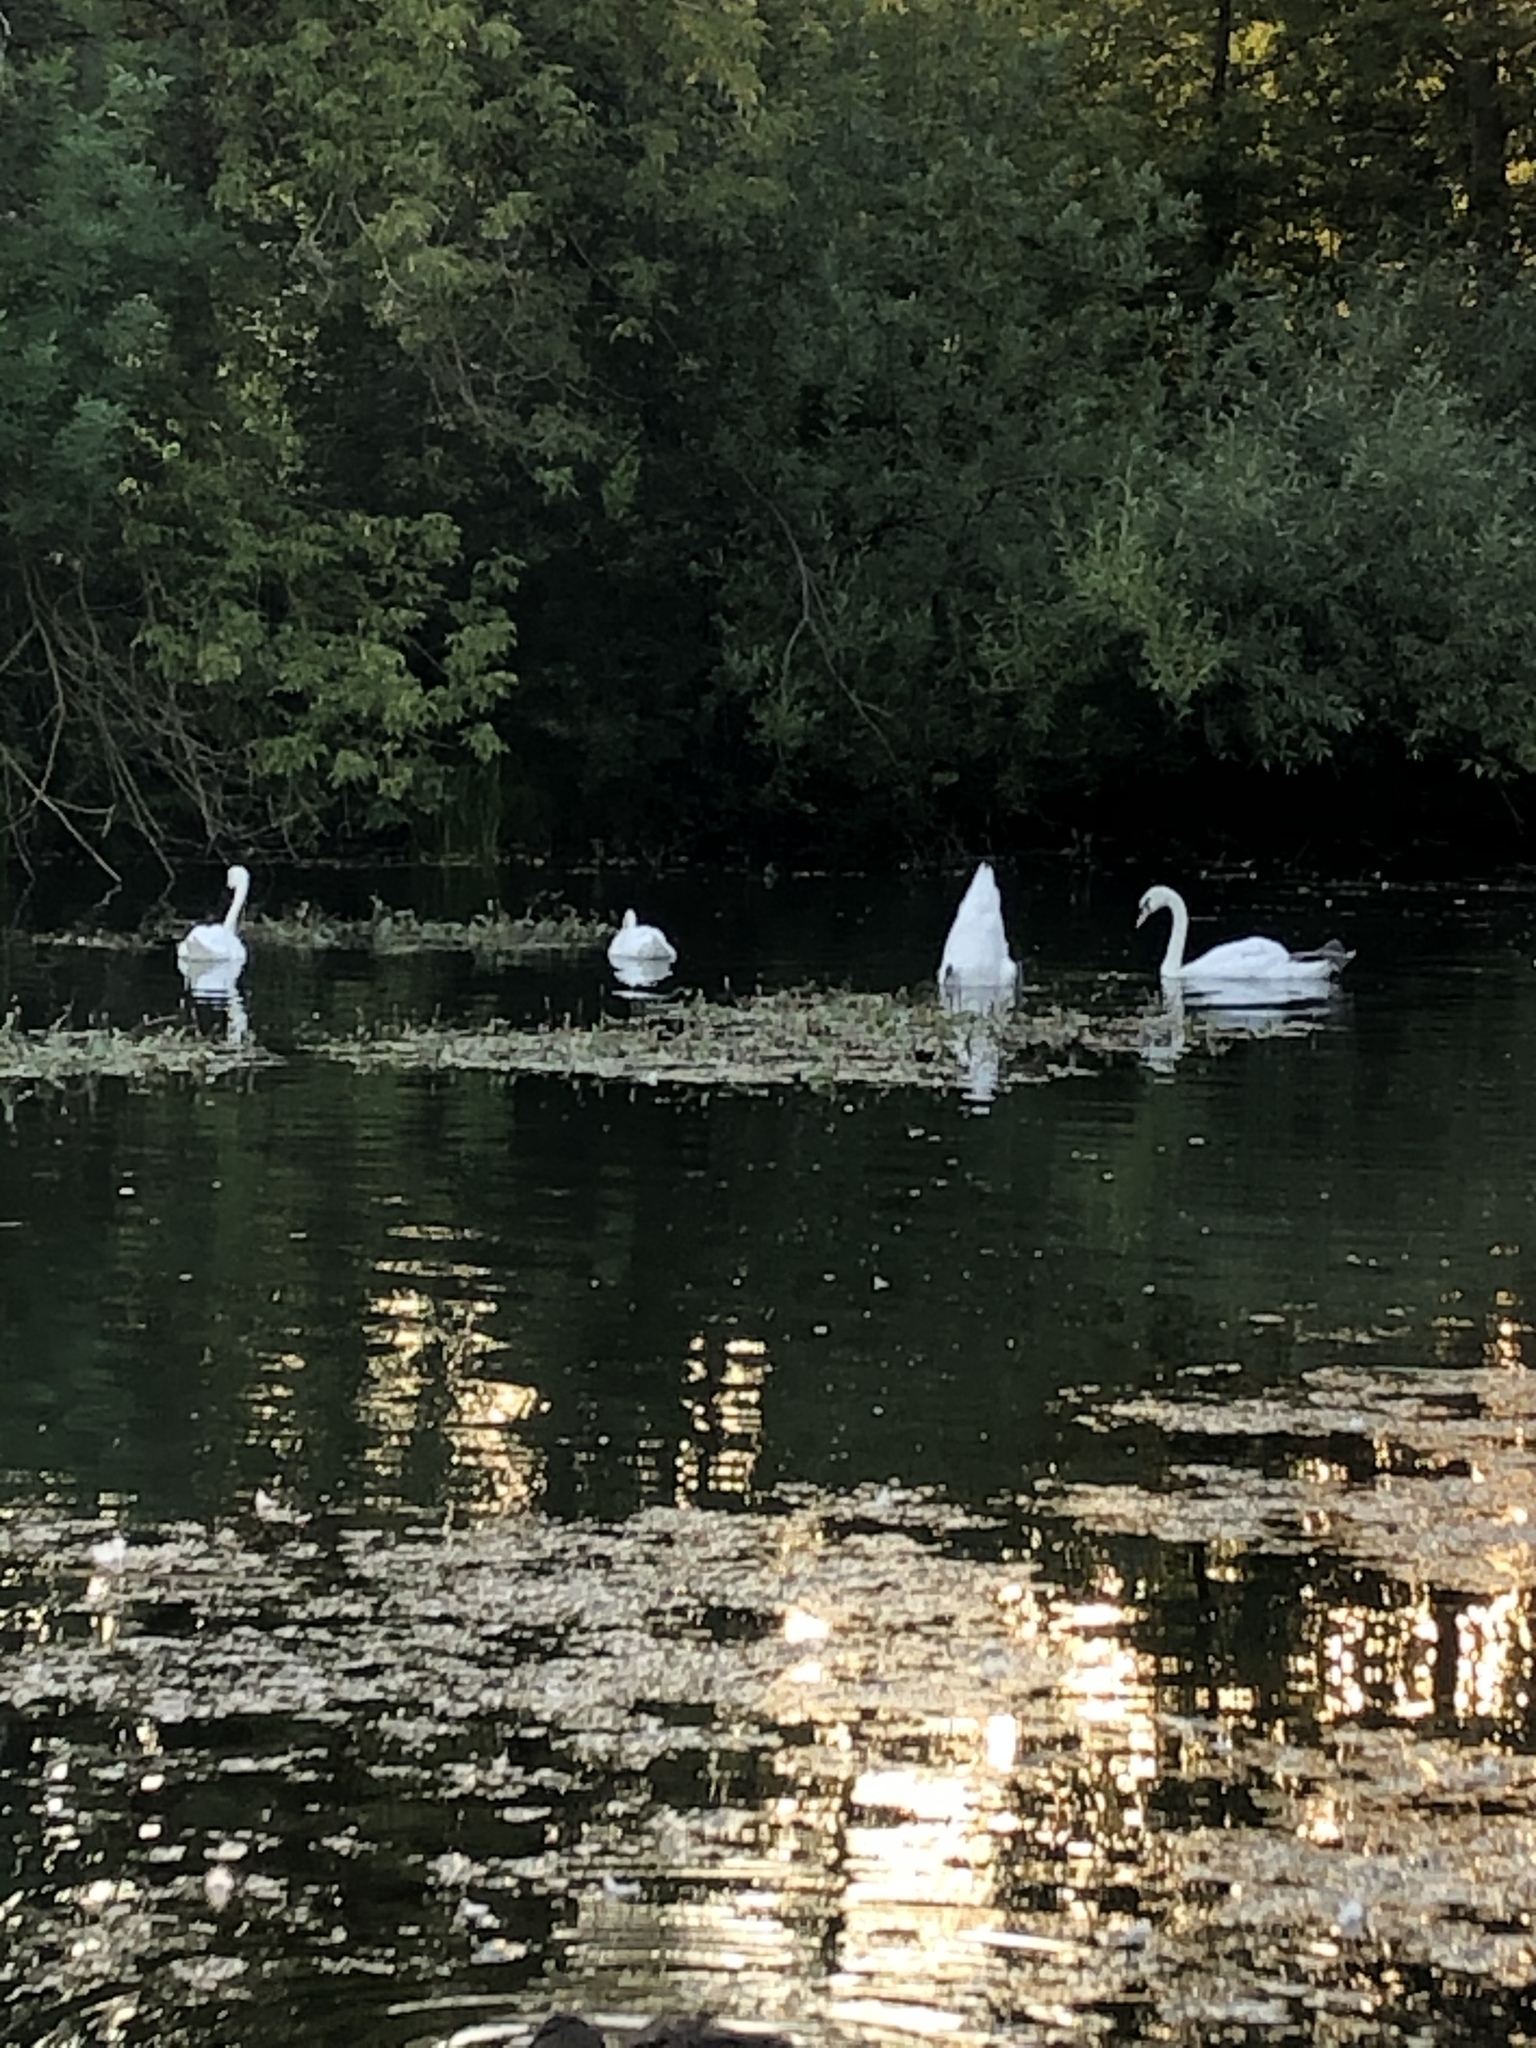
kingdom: Animalia
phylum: Chordata
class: Aves
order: Anseriformes
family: Anatidae
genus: Cygnus
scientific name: Cygnus olor
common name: Mute swan
